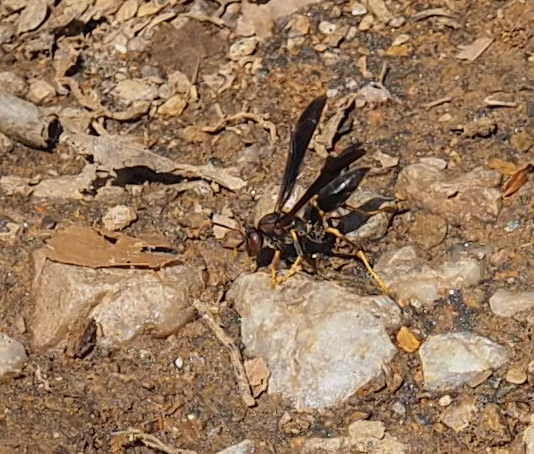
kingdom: Animalia
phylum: Arthropoda
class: Insecta
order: Hymenoptera
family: Eumenidae
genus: Polistes
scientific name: Polistes annularis
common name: Ringed paper wasp
